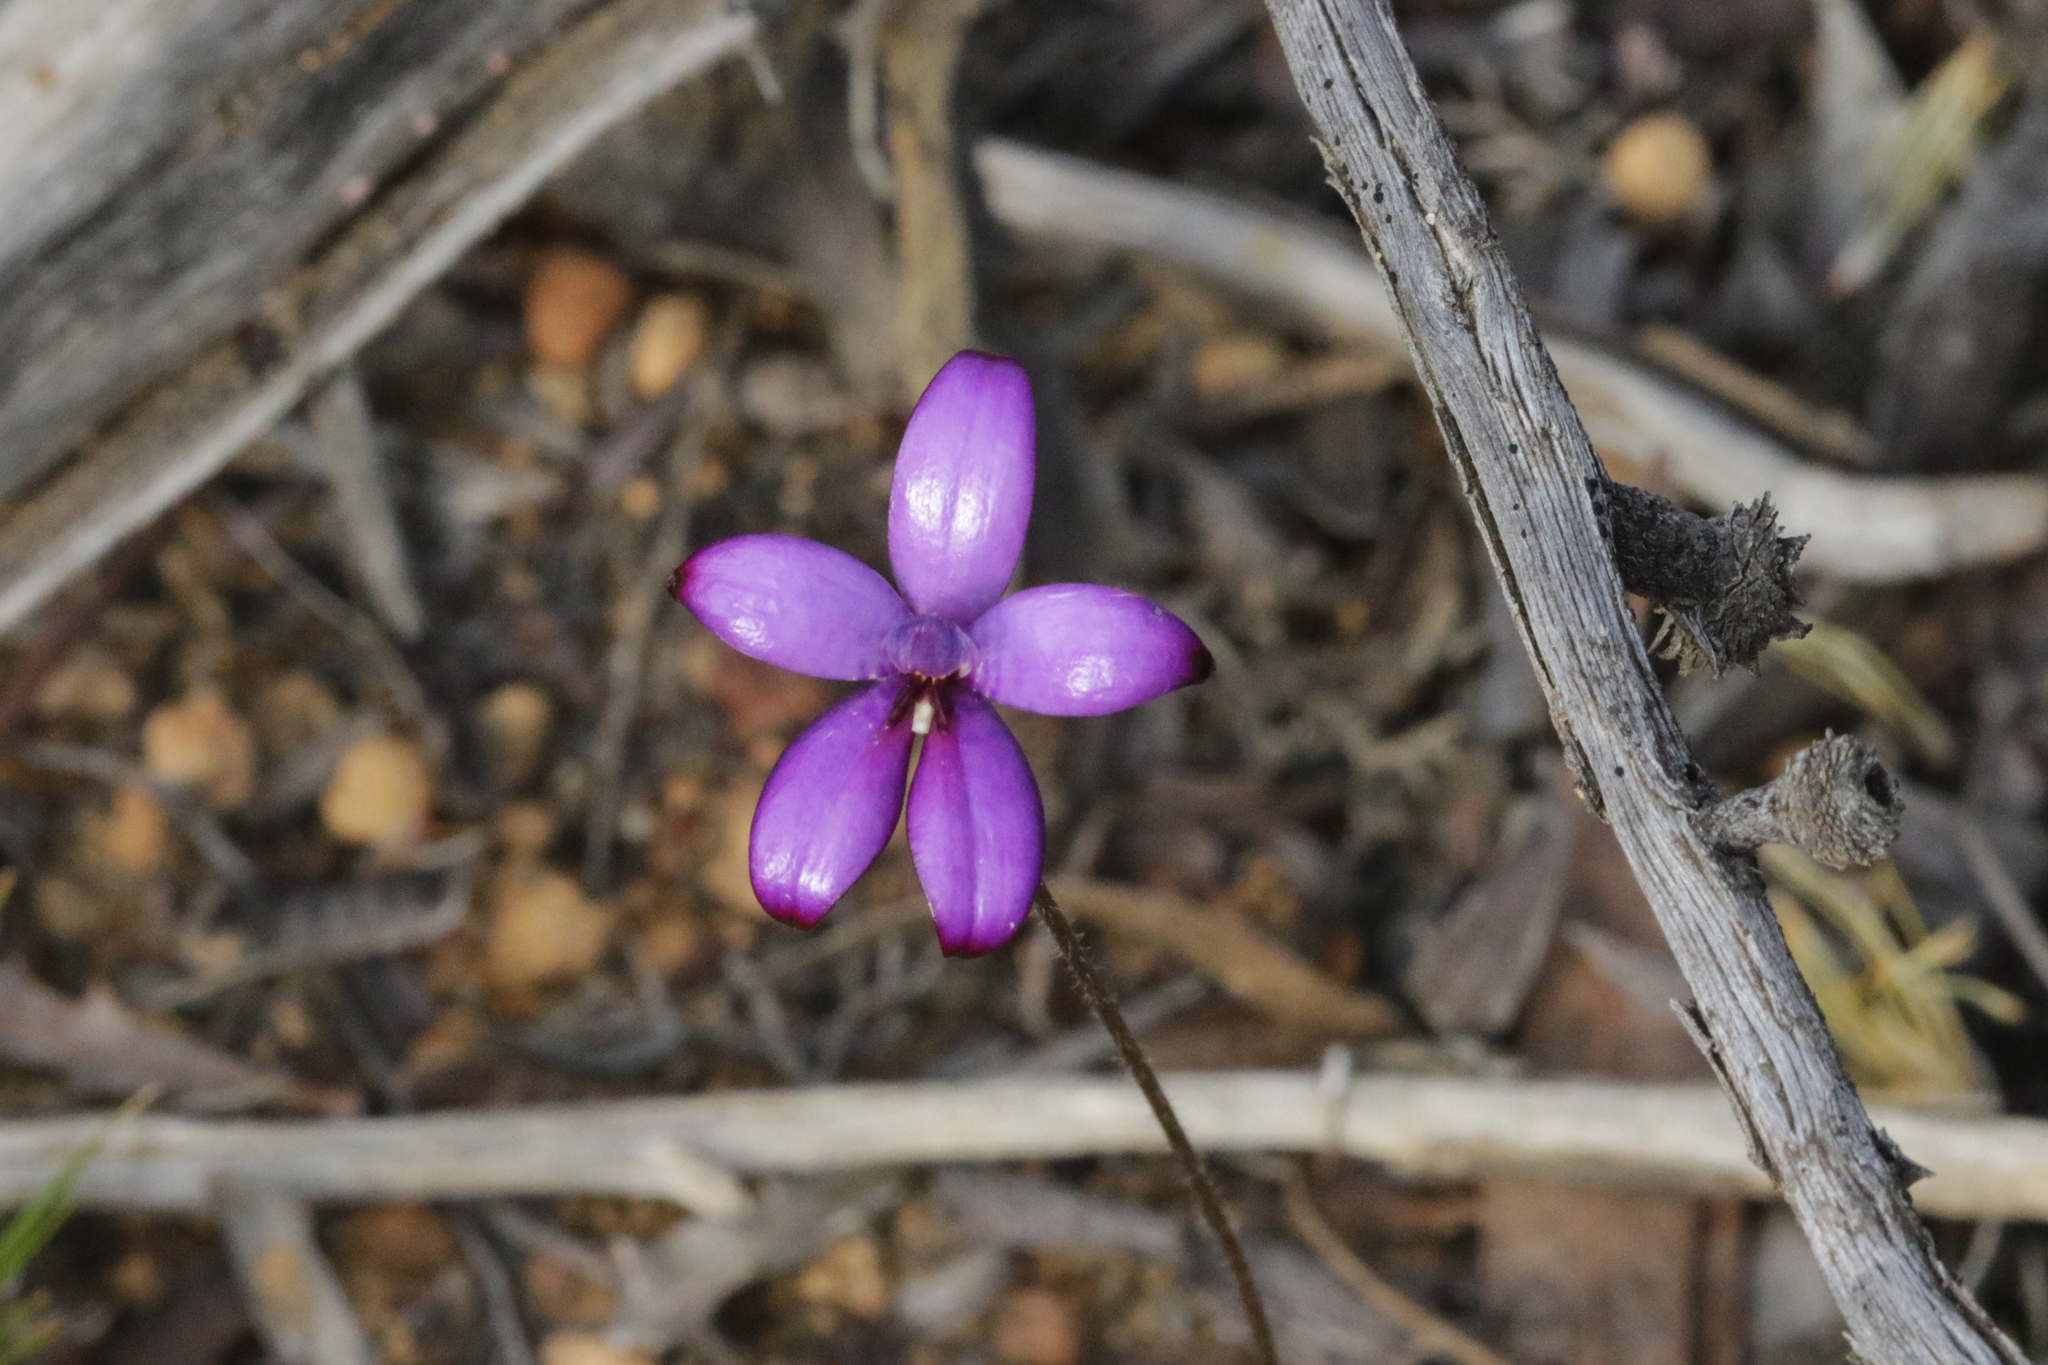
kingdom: Plantae
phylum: Tracheophyta
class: Liliopsida
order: Asparagales
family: Orchidaceae
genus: Caladenia
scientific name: Caladenia brunonis
